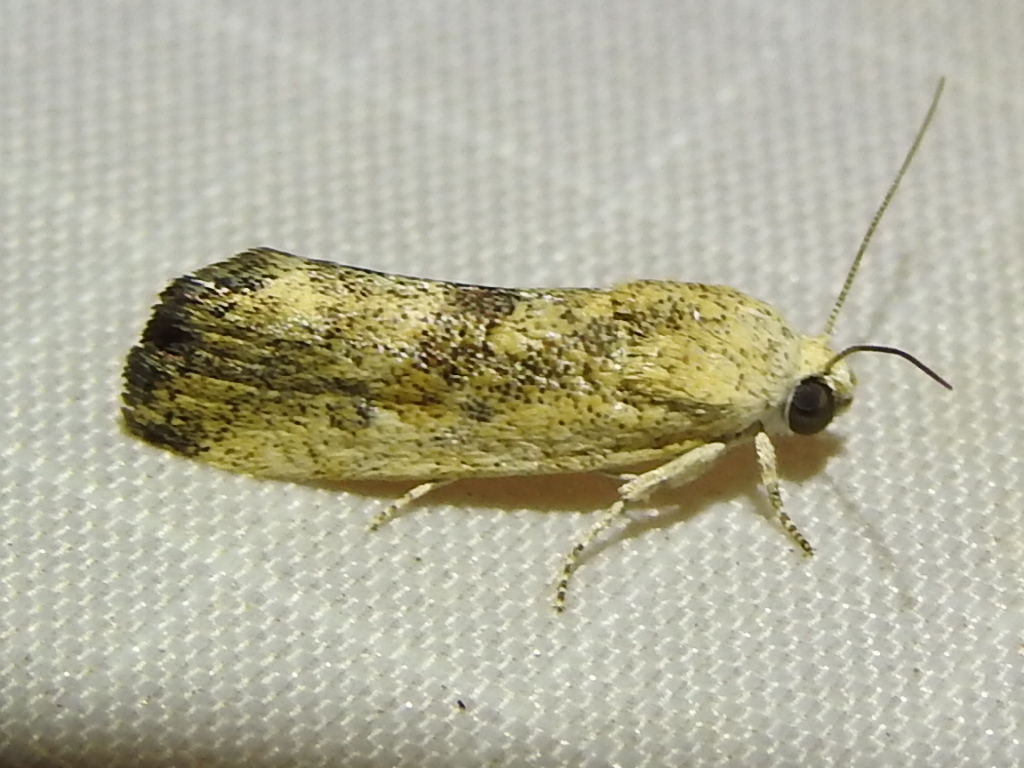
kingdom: Animalia
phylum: Arthropoda
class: Insecta
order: Lepidoptera
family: Noctuidae
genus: Acontia
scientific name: Acontia fasciatella
